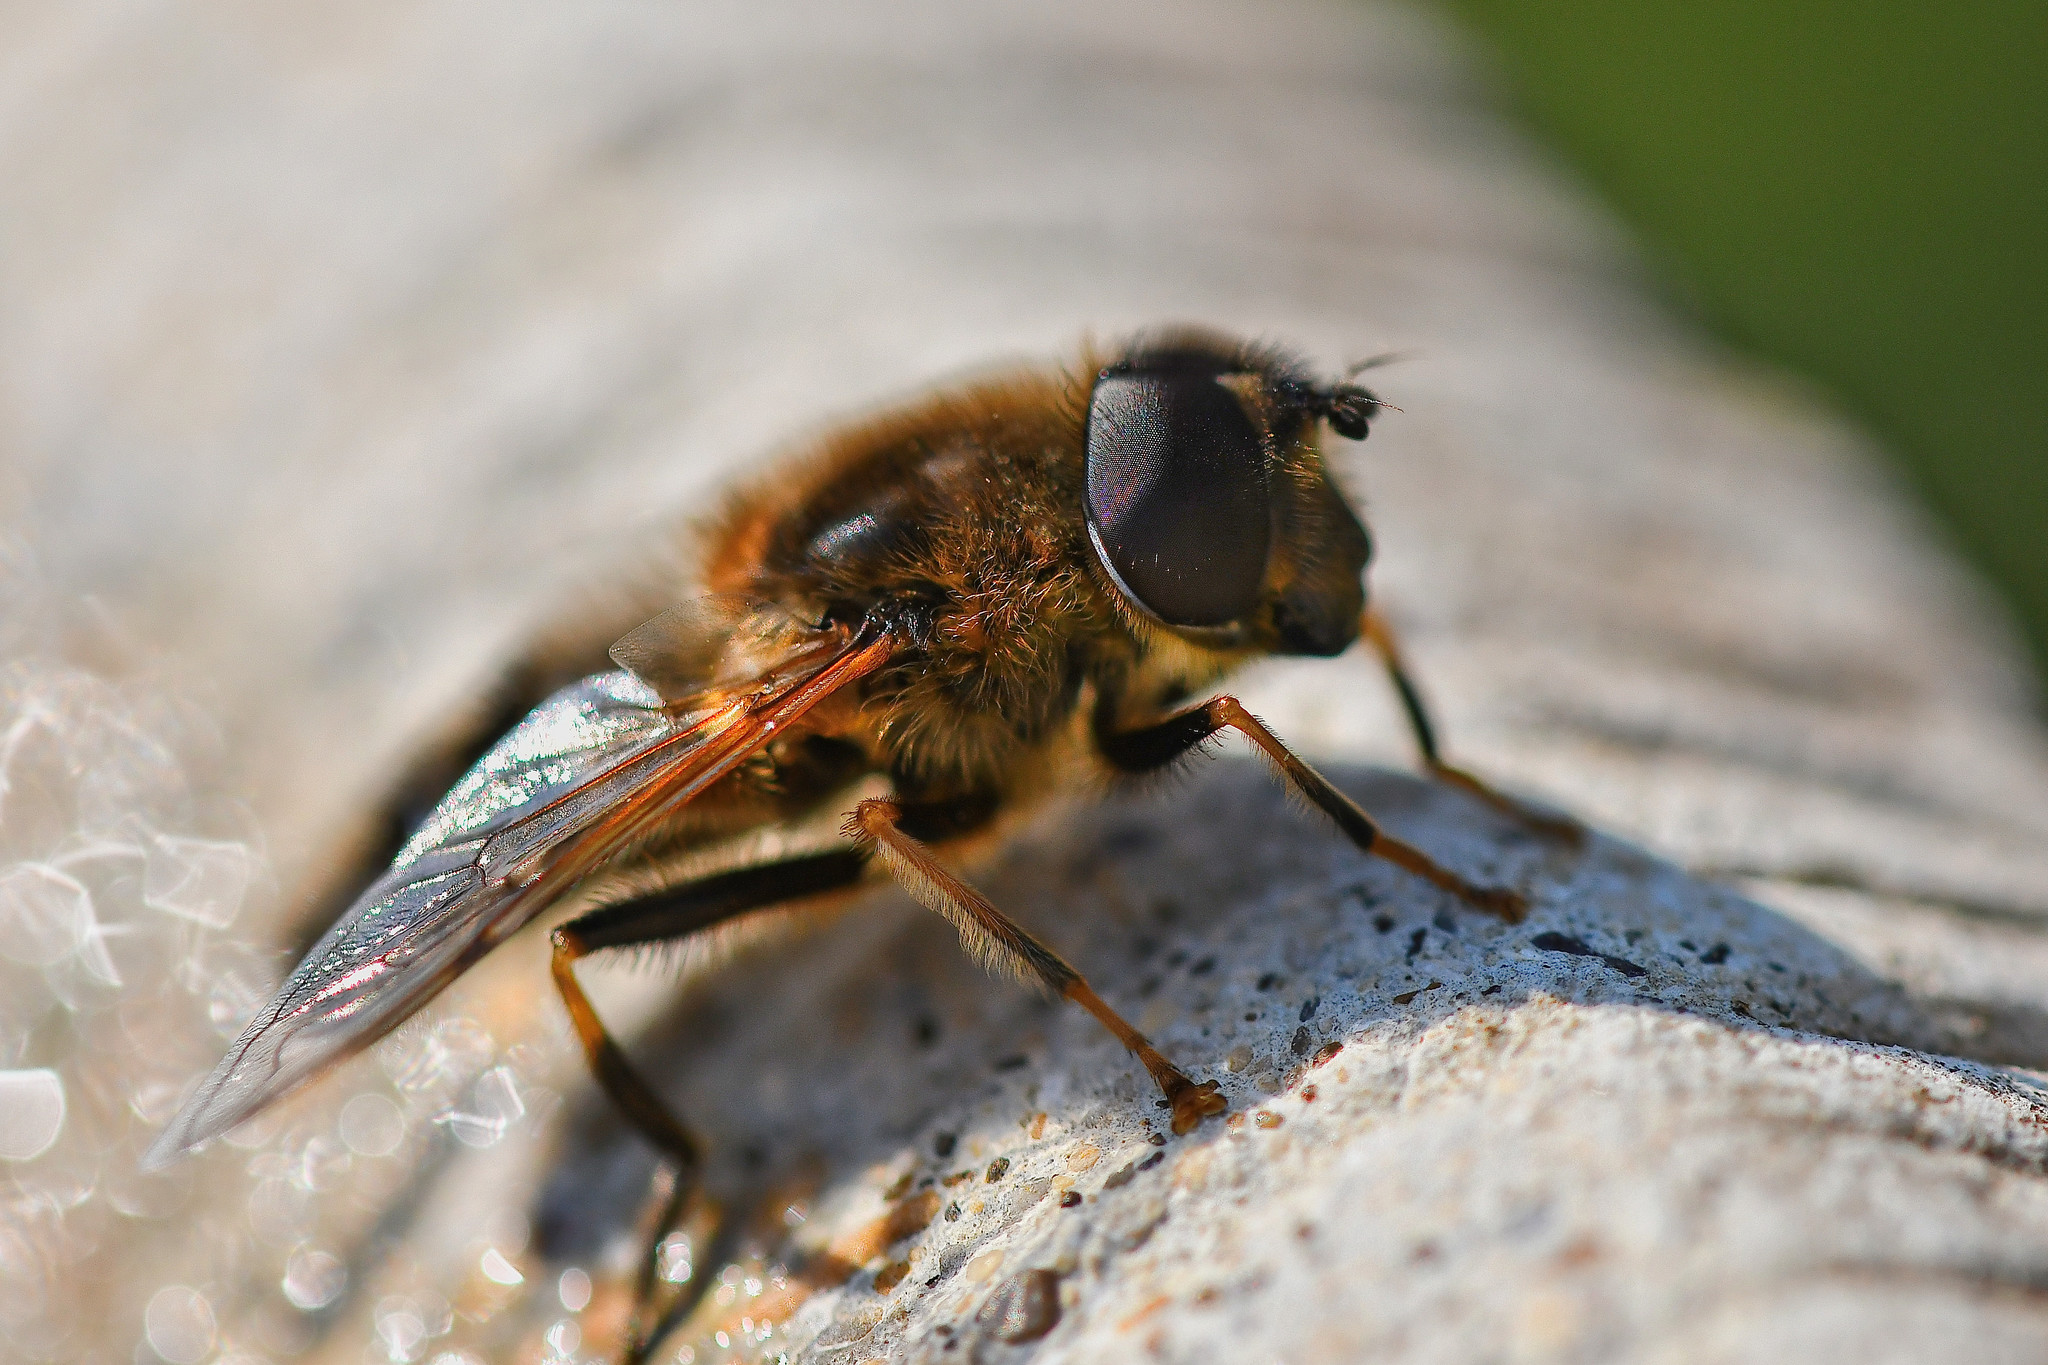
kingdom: Animalia
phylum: Arthropoda
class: Insecta
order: Diptera
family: Syrphidae
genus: Eristalis
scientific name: Eristalis pertinax
